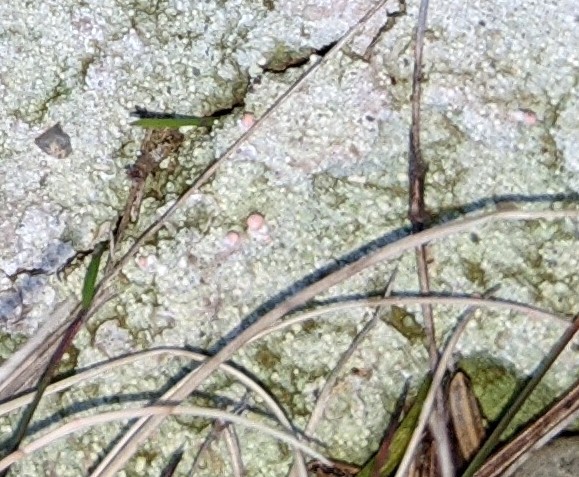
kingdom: Fungi
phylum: Ascomycota
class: Lecanoromycetes
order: Pertusariales
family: Icmadophilaceae
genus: Dibaeis
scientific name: Dibaeis baeomyces
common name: Pink earth lichen
